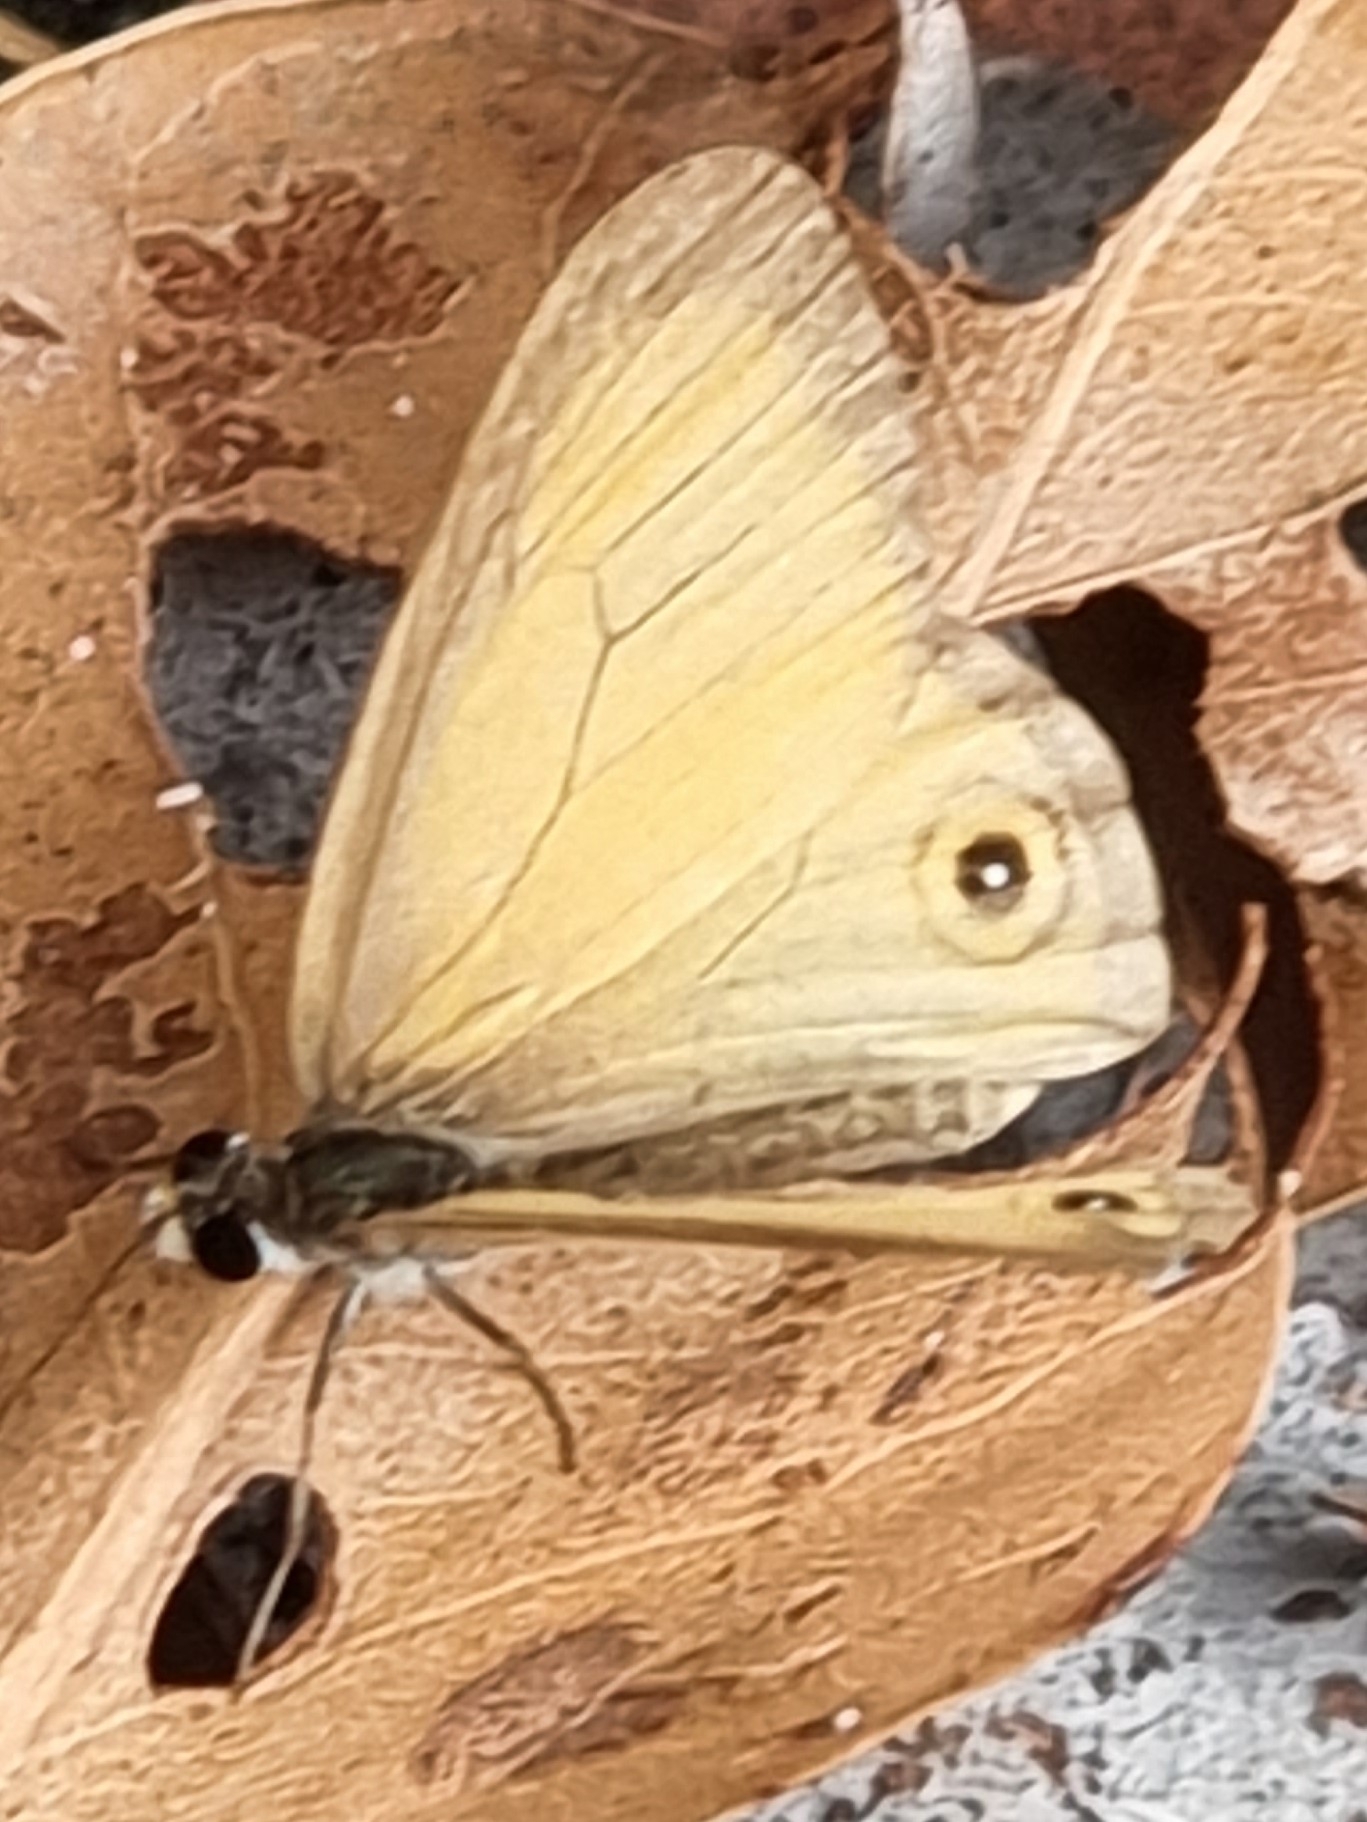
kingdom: Animalia
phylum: Arthropoda
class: Insecta
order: Lepidoptera
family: Nymphalidae
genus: Hypocysta
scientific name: Hypocysta adiante
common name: Orange ringlet
